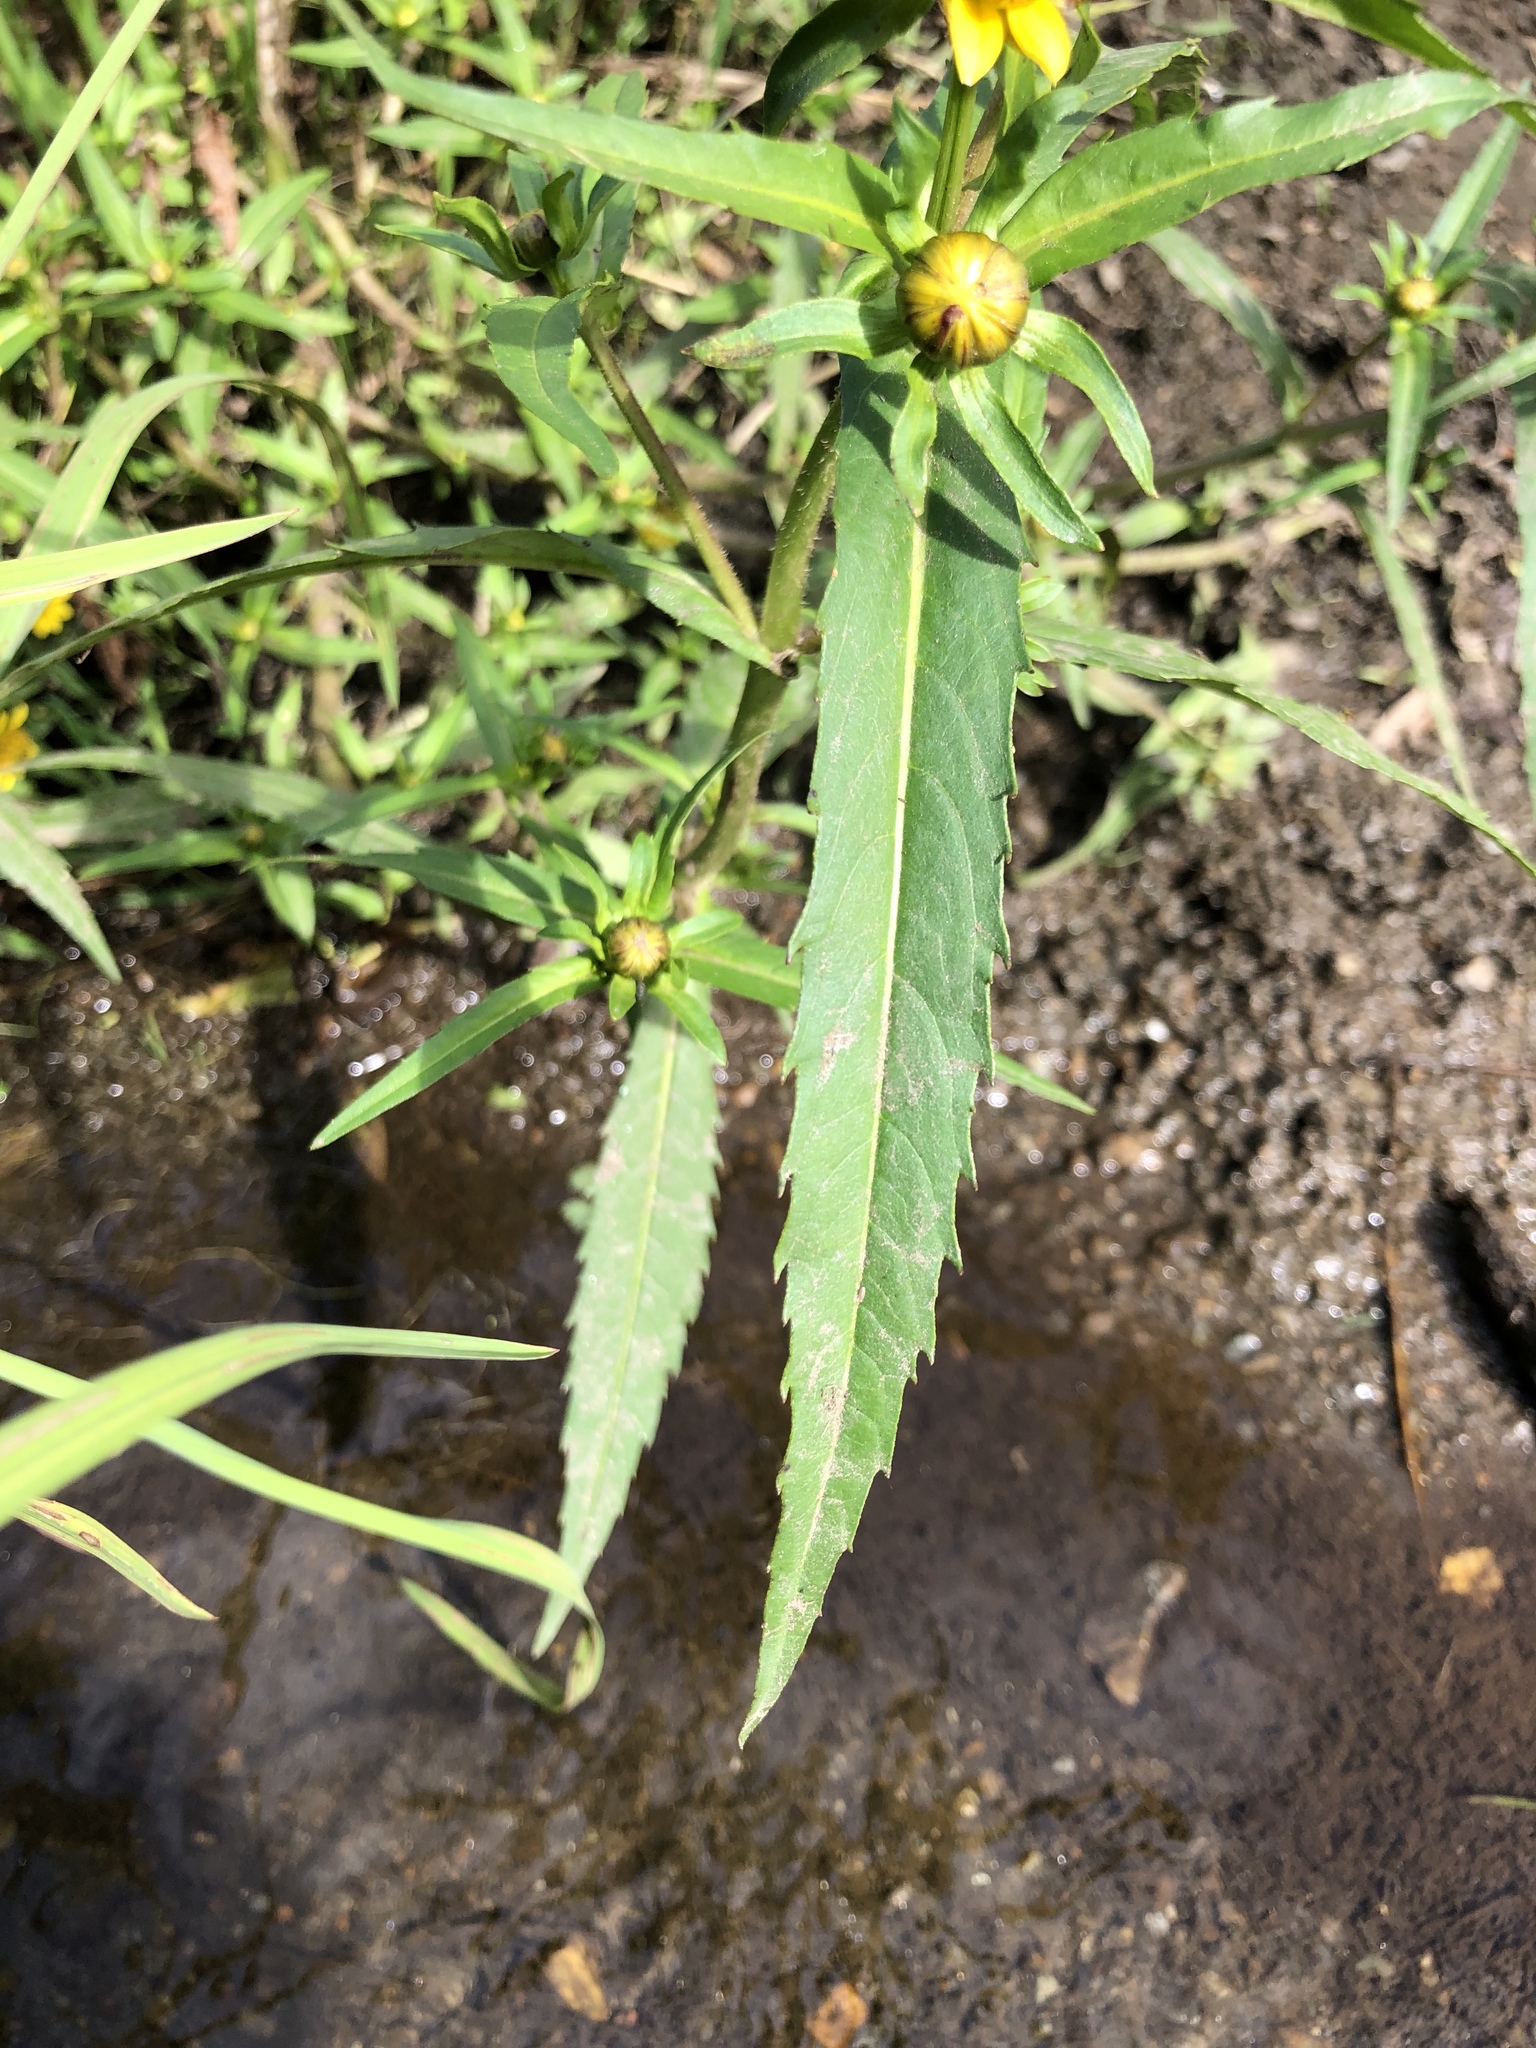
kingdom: Plantae
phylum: Tracheophyta
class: Magnoliopsida
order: Asterales
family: Asteraceae
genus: Bidens
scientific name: Bidens cernua
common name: Nodding bur-marigold
